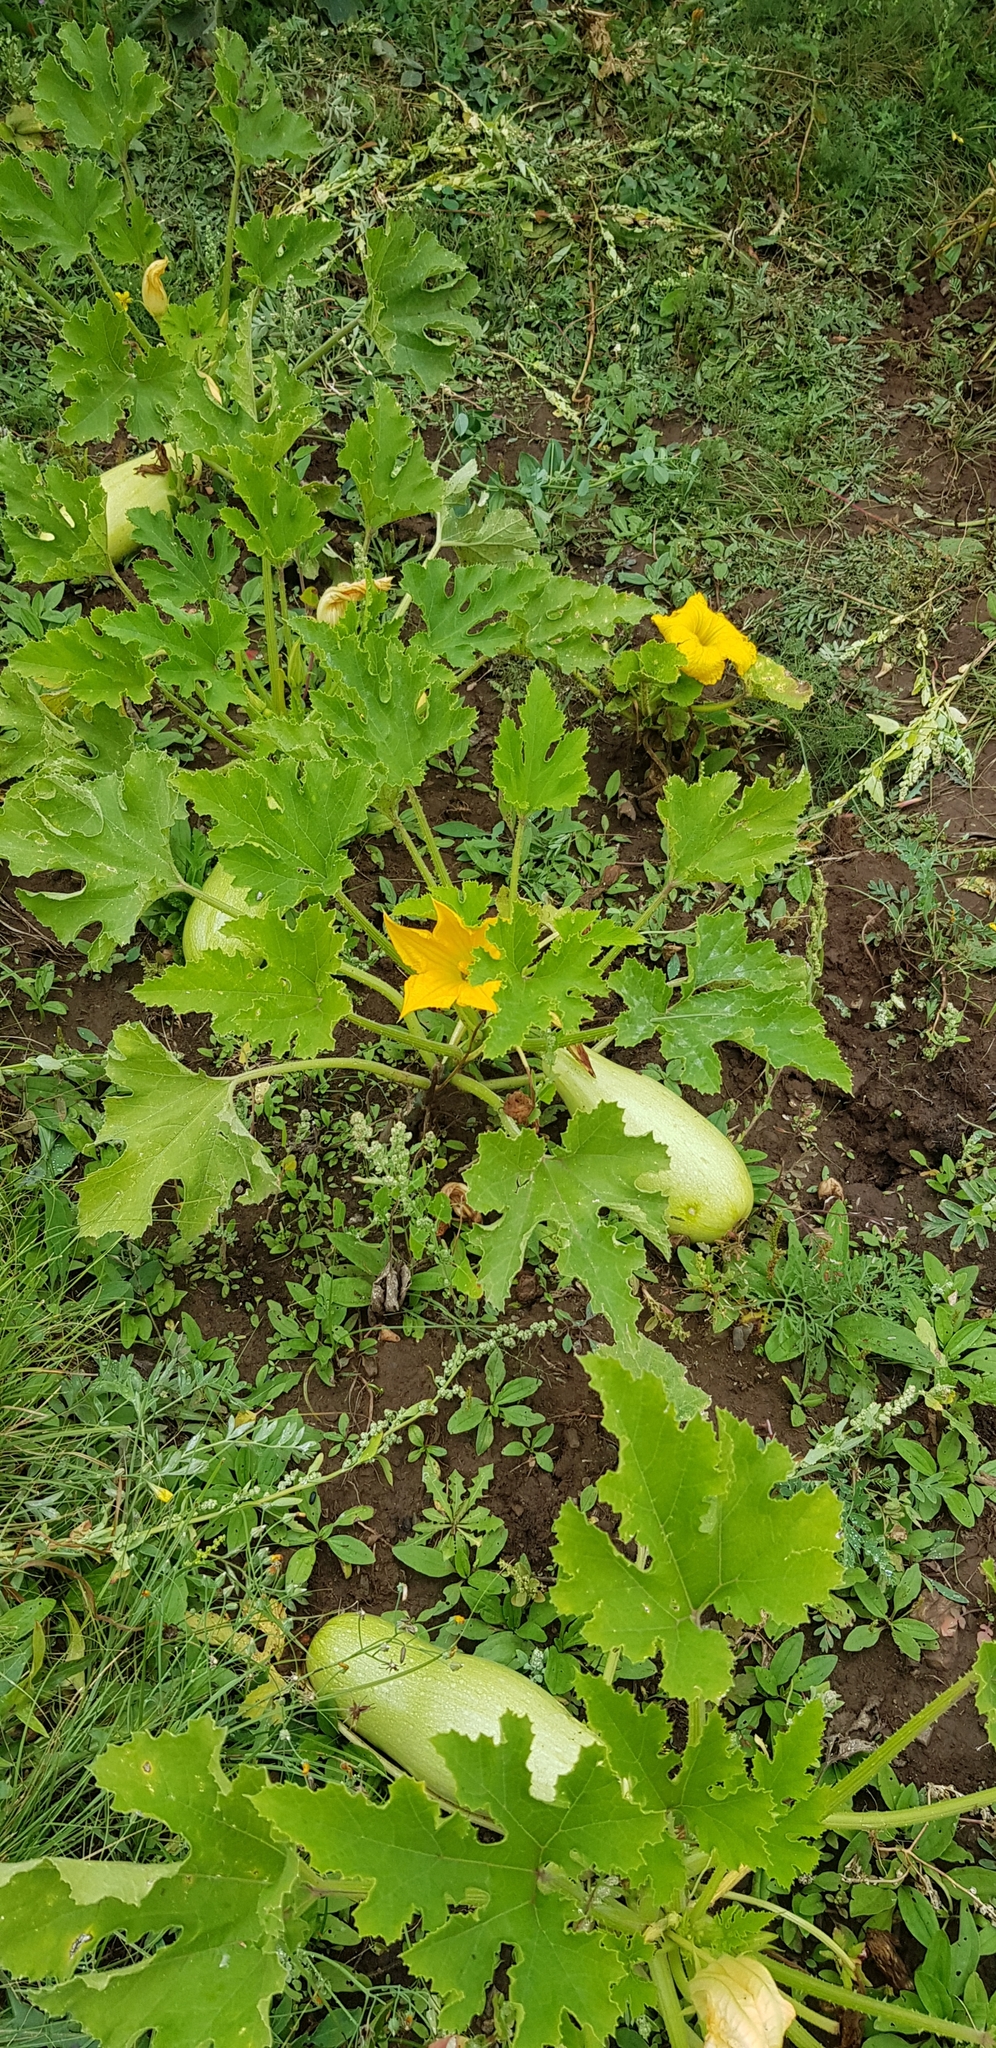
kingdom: Plantae
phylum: Tracheophyta
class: Magnoliopsida
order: Cucurbitales
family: Cucurbitaceae
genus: Cucurbita
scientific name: Cucurbita pepo
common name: Marrow
